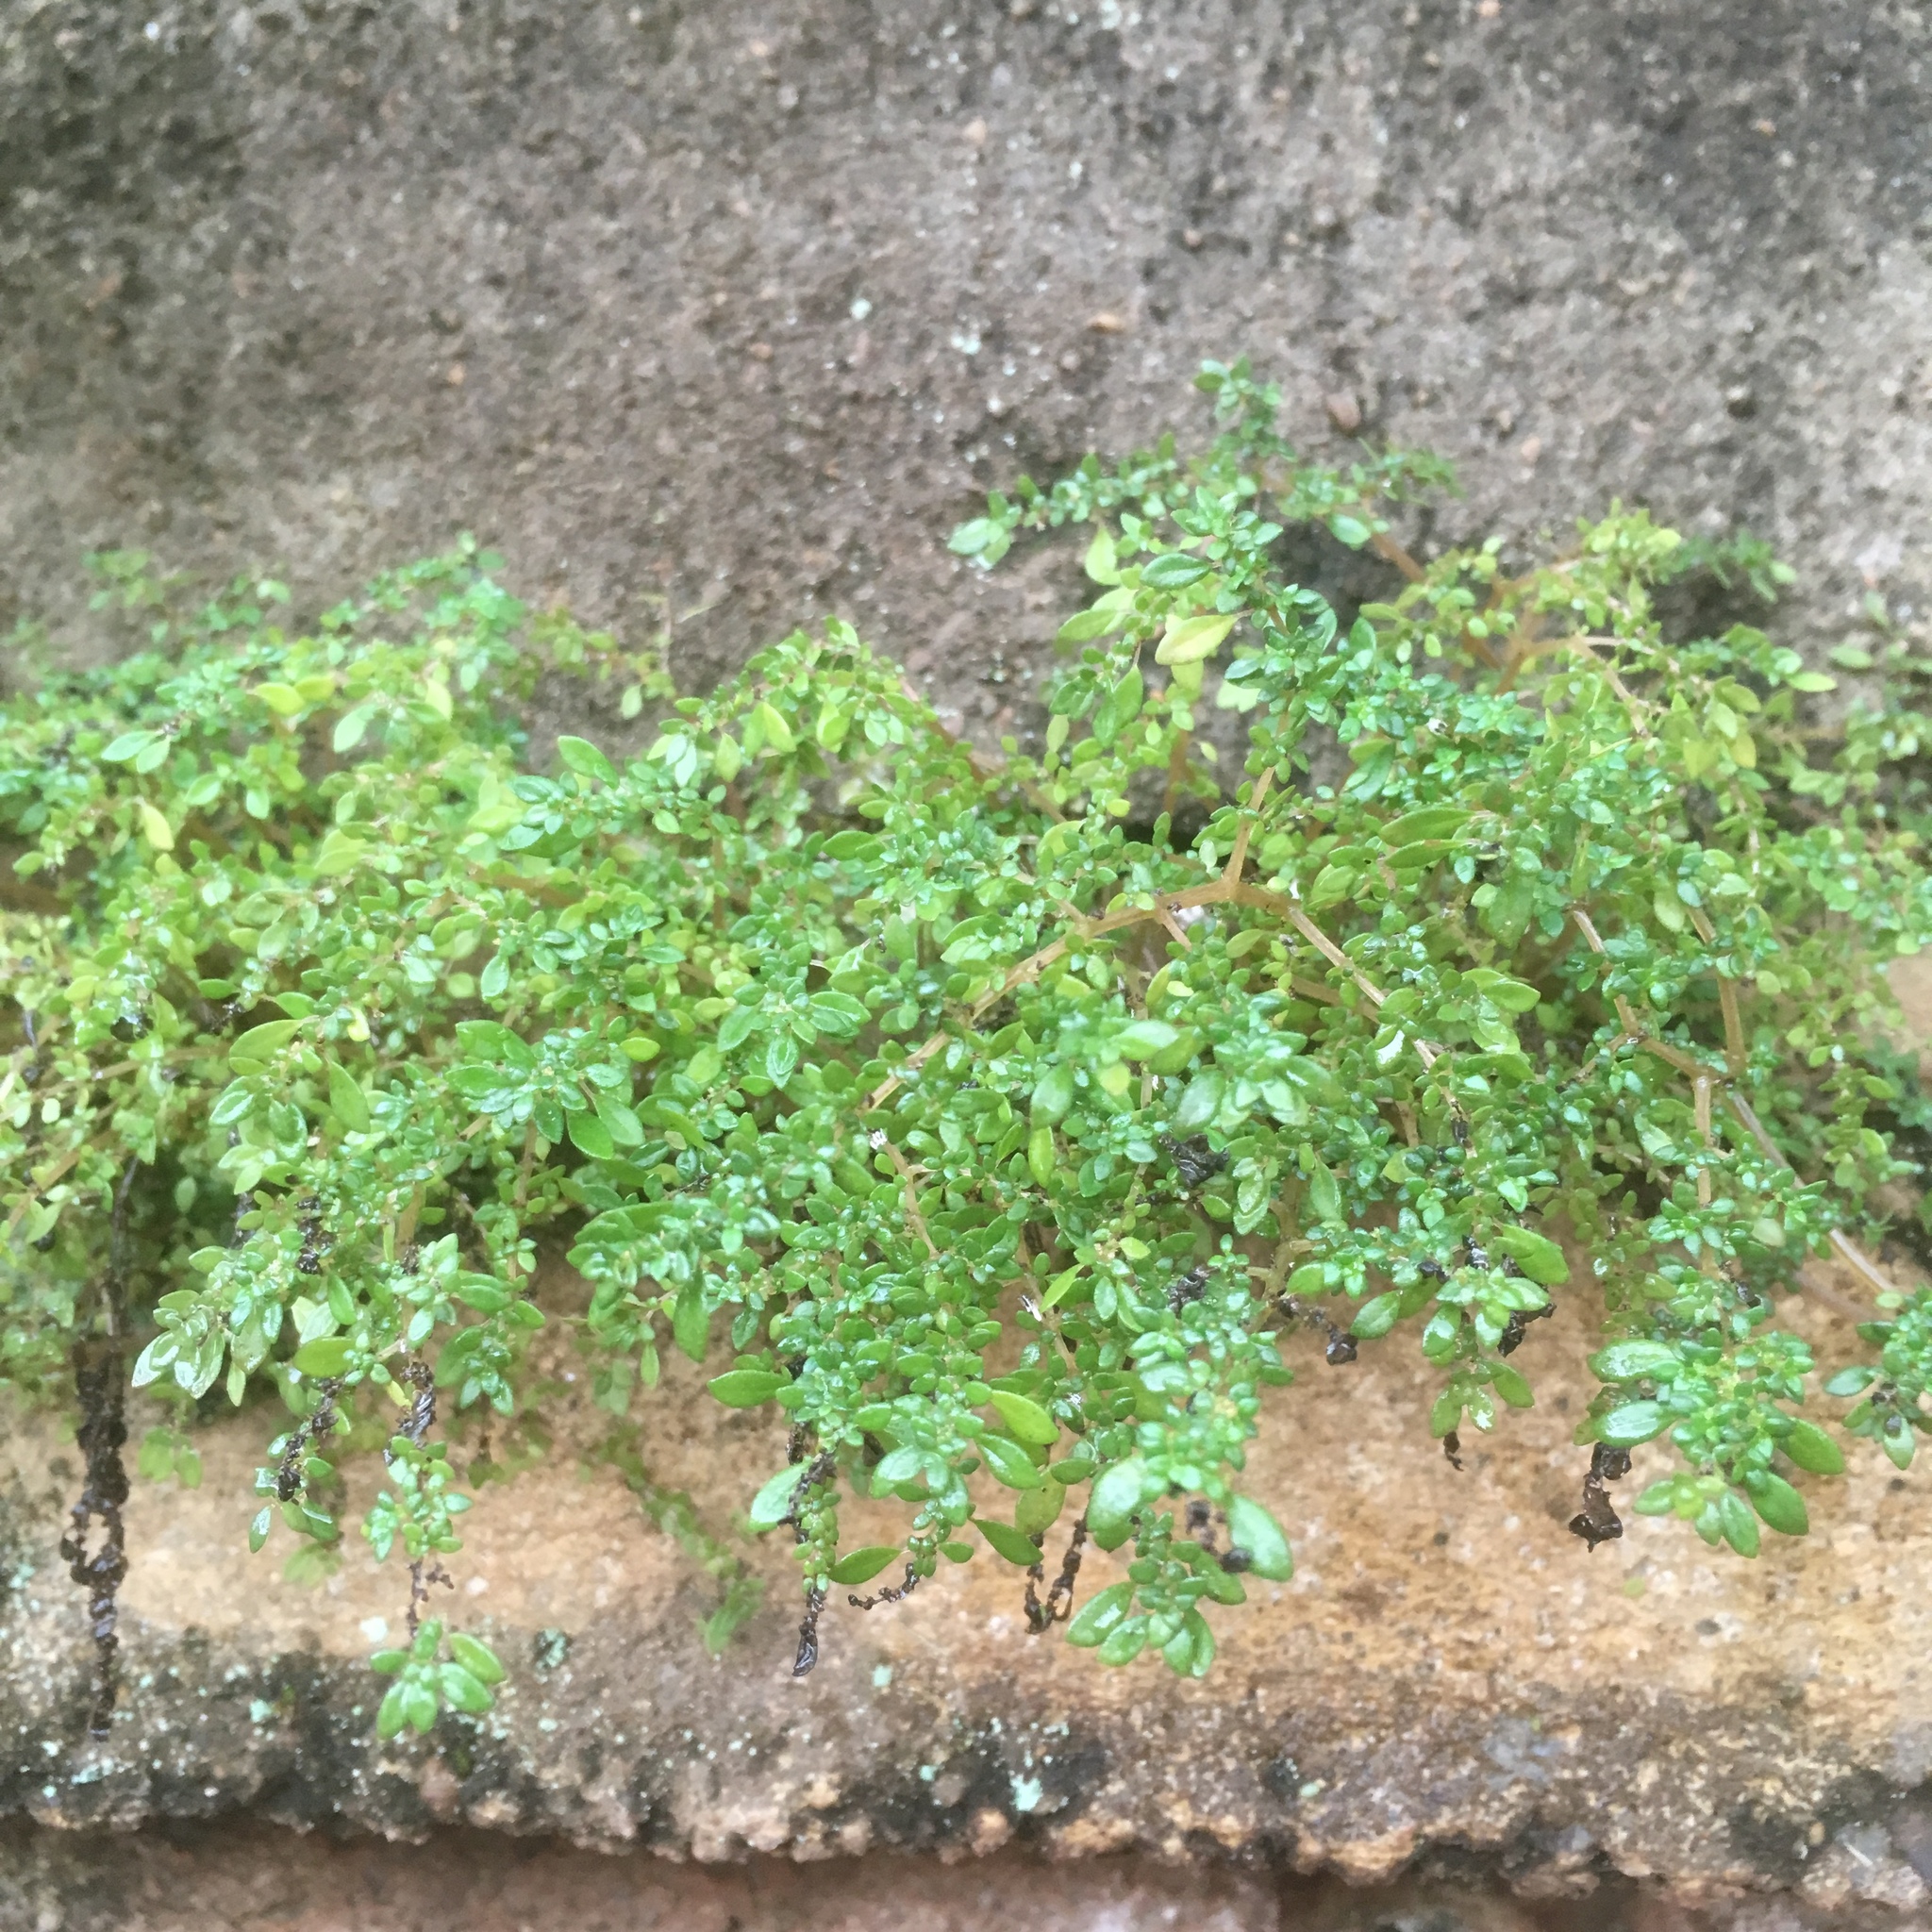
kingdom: Plantae
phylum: Tracheophyta
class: Magnoliopsida
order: Rosales
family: Urticaceae
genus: Pilea
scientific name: Pilea microphylla
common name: Artillery-plant
